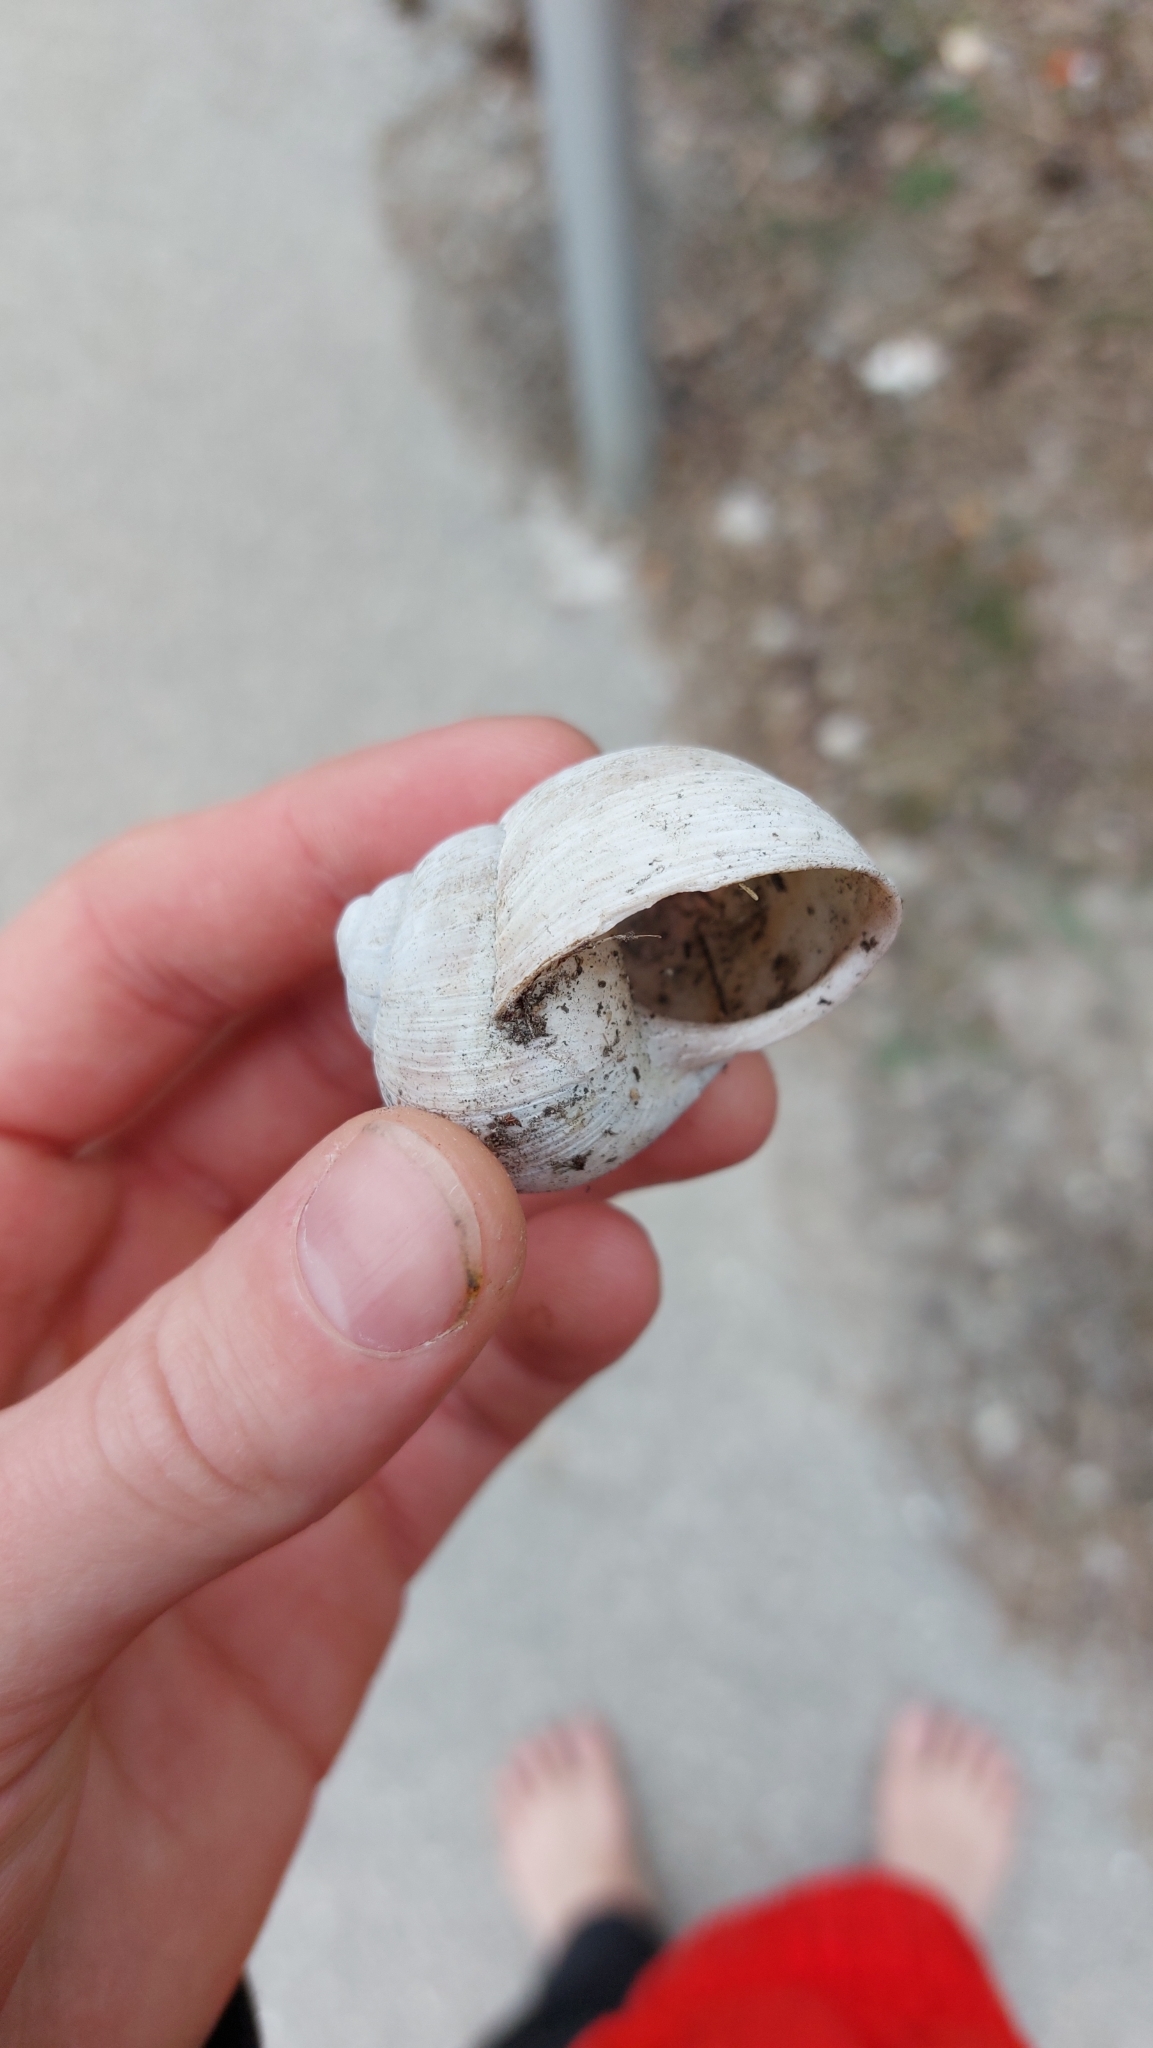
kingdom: Animalia
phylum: Mollusca
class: Gastropoda
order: Stylommatophora
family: Helicidae
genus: Helix
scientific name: Helix pomatia
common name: Roman snail
